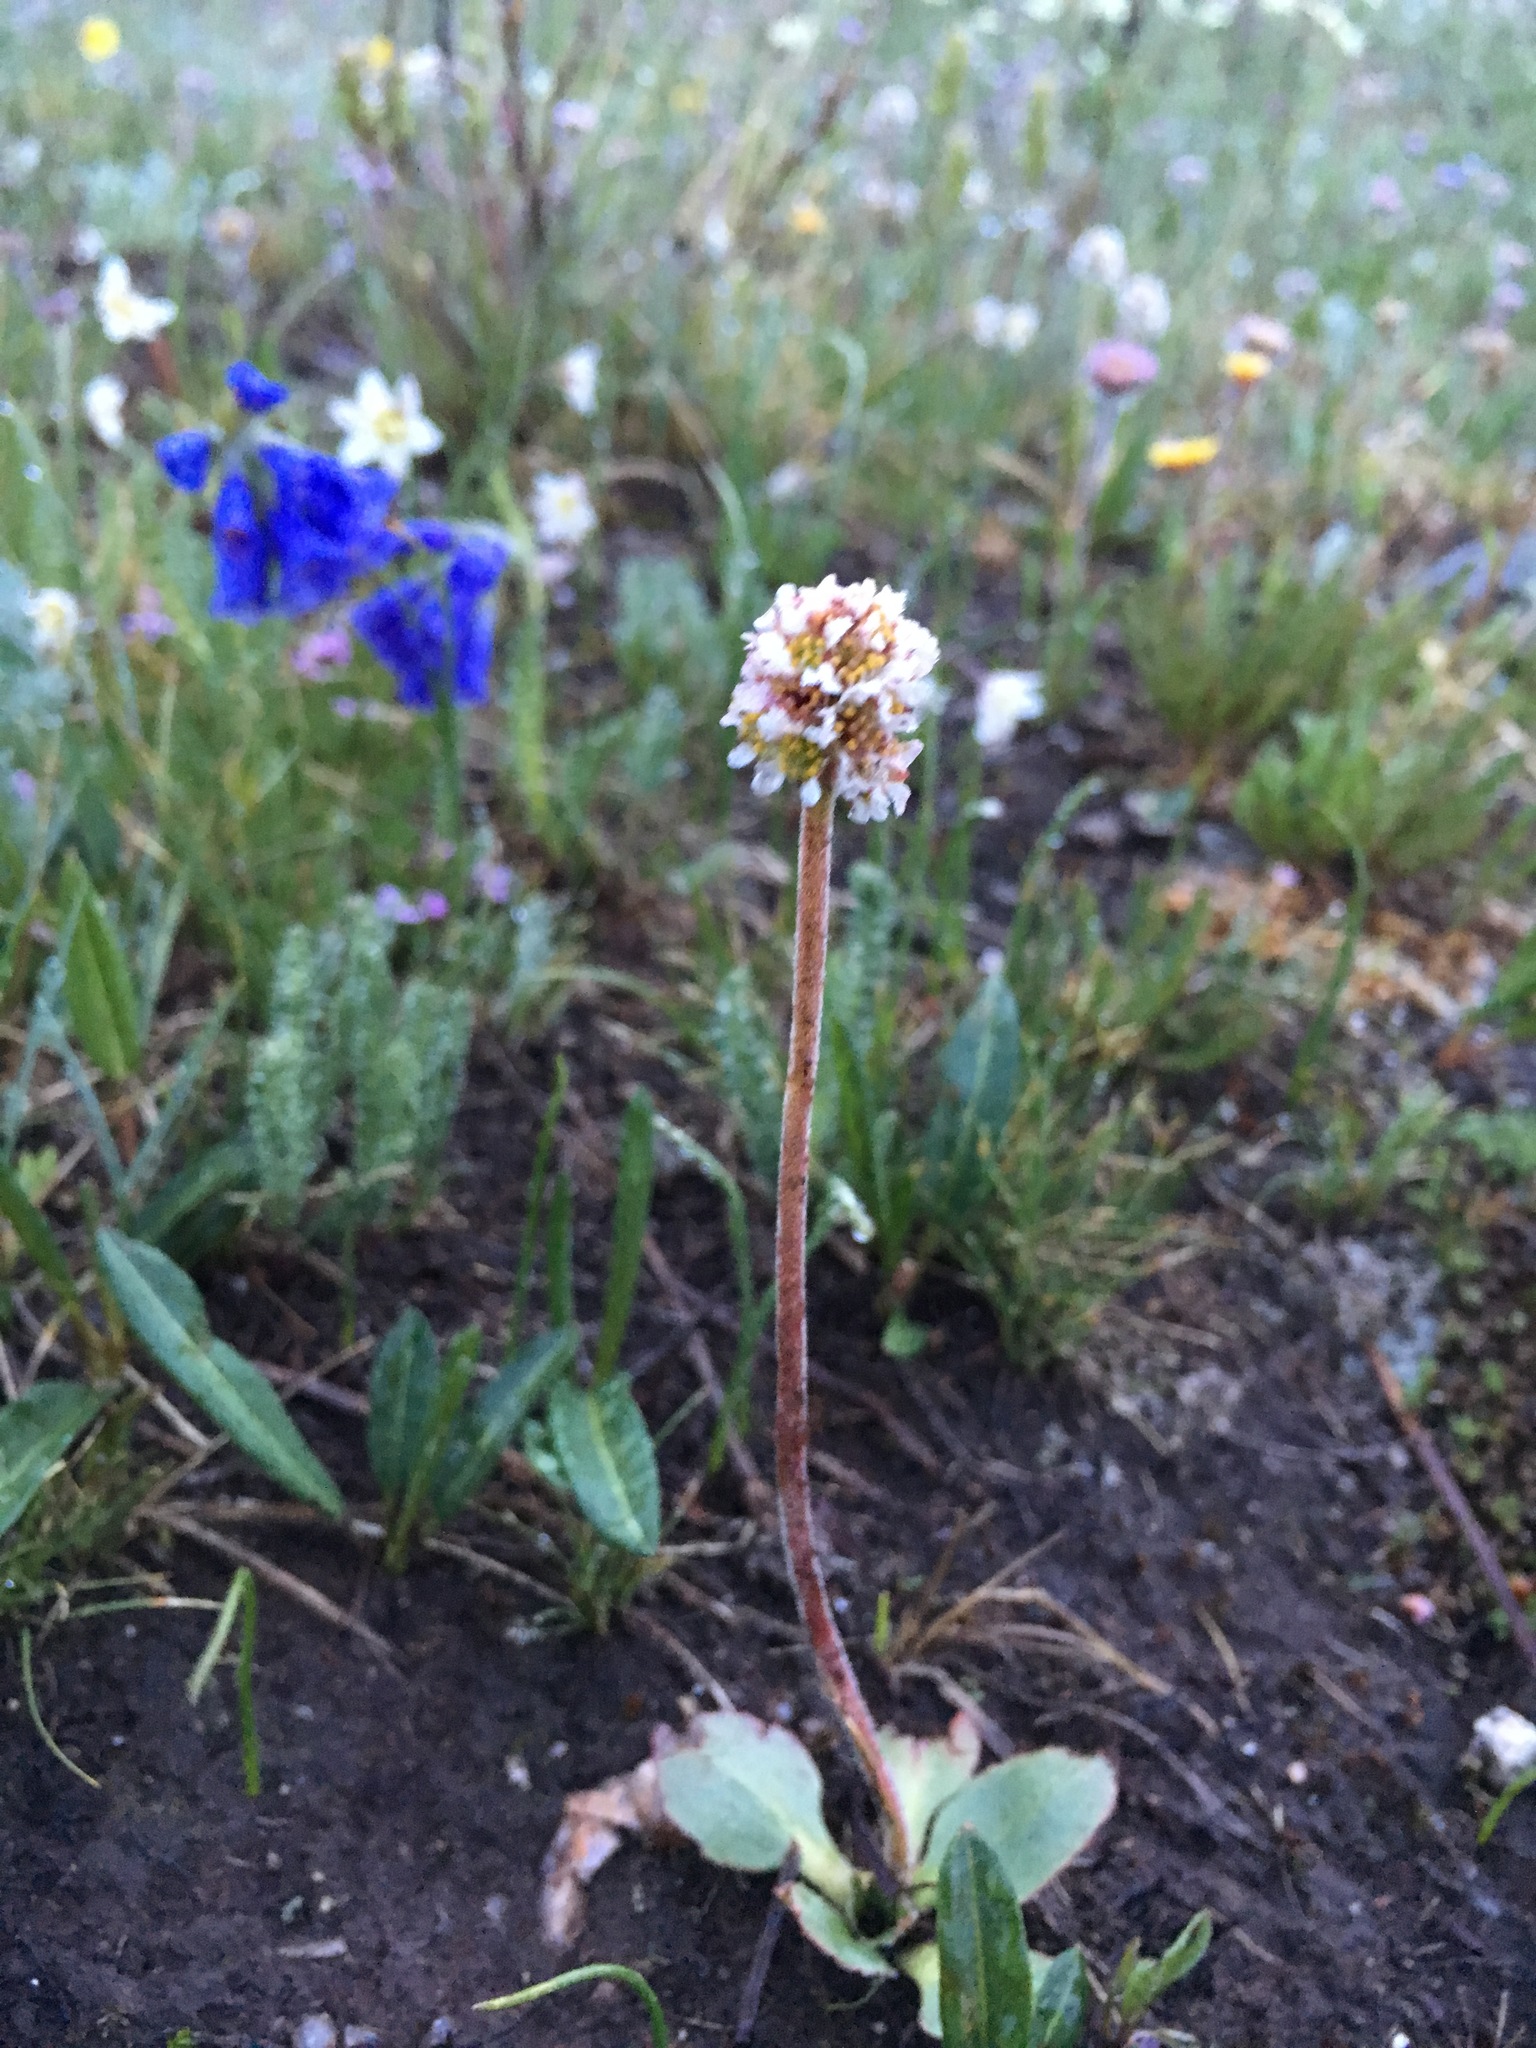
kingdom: Plantae
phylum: Tracheophyta
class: Magnoliopsida
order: Saxifragales
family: Saxifragaceae
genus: Micranthes
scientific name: Micranthes rhomboidea
